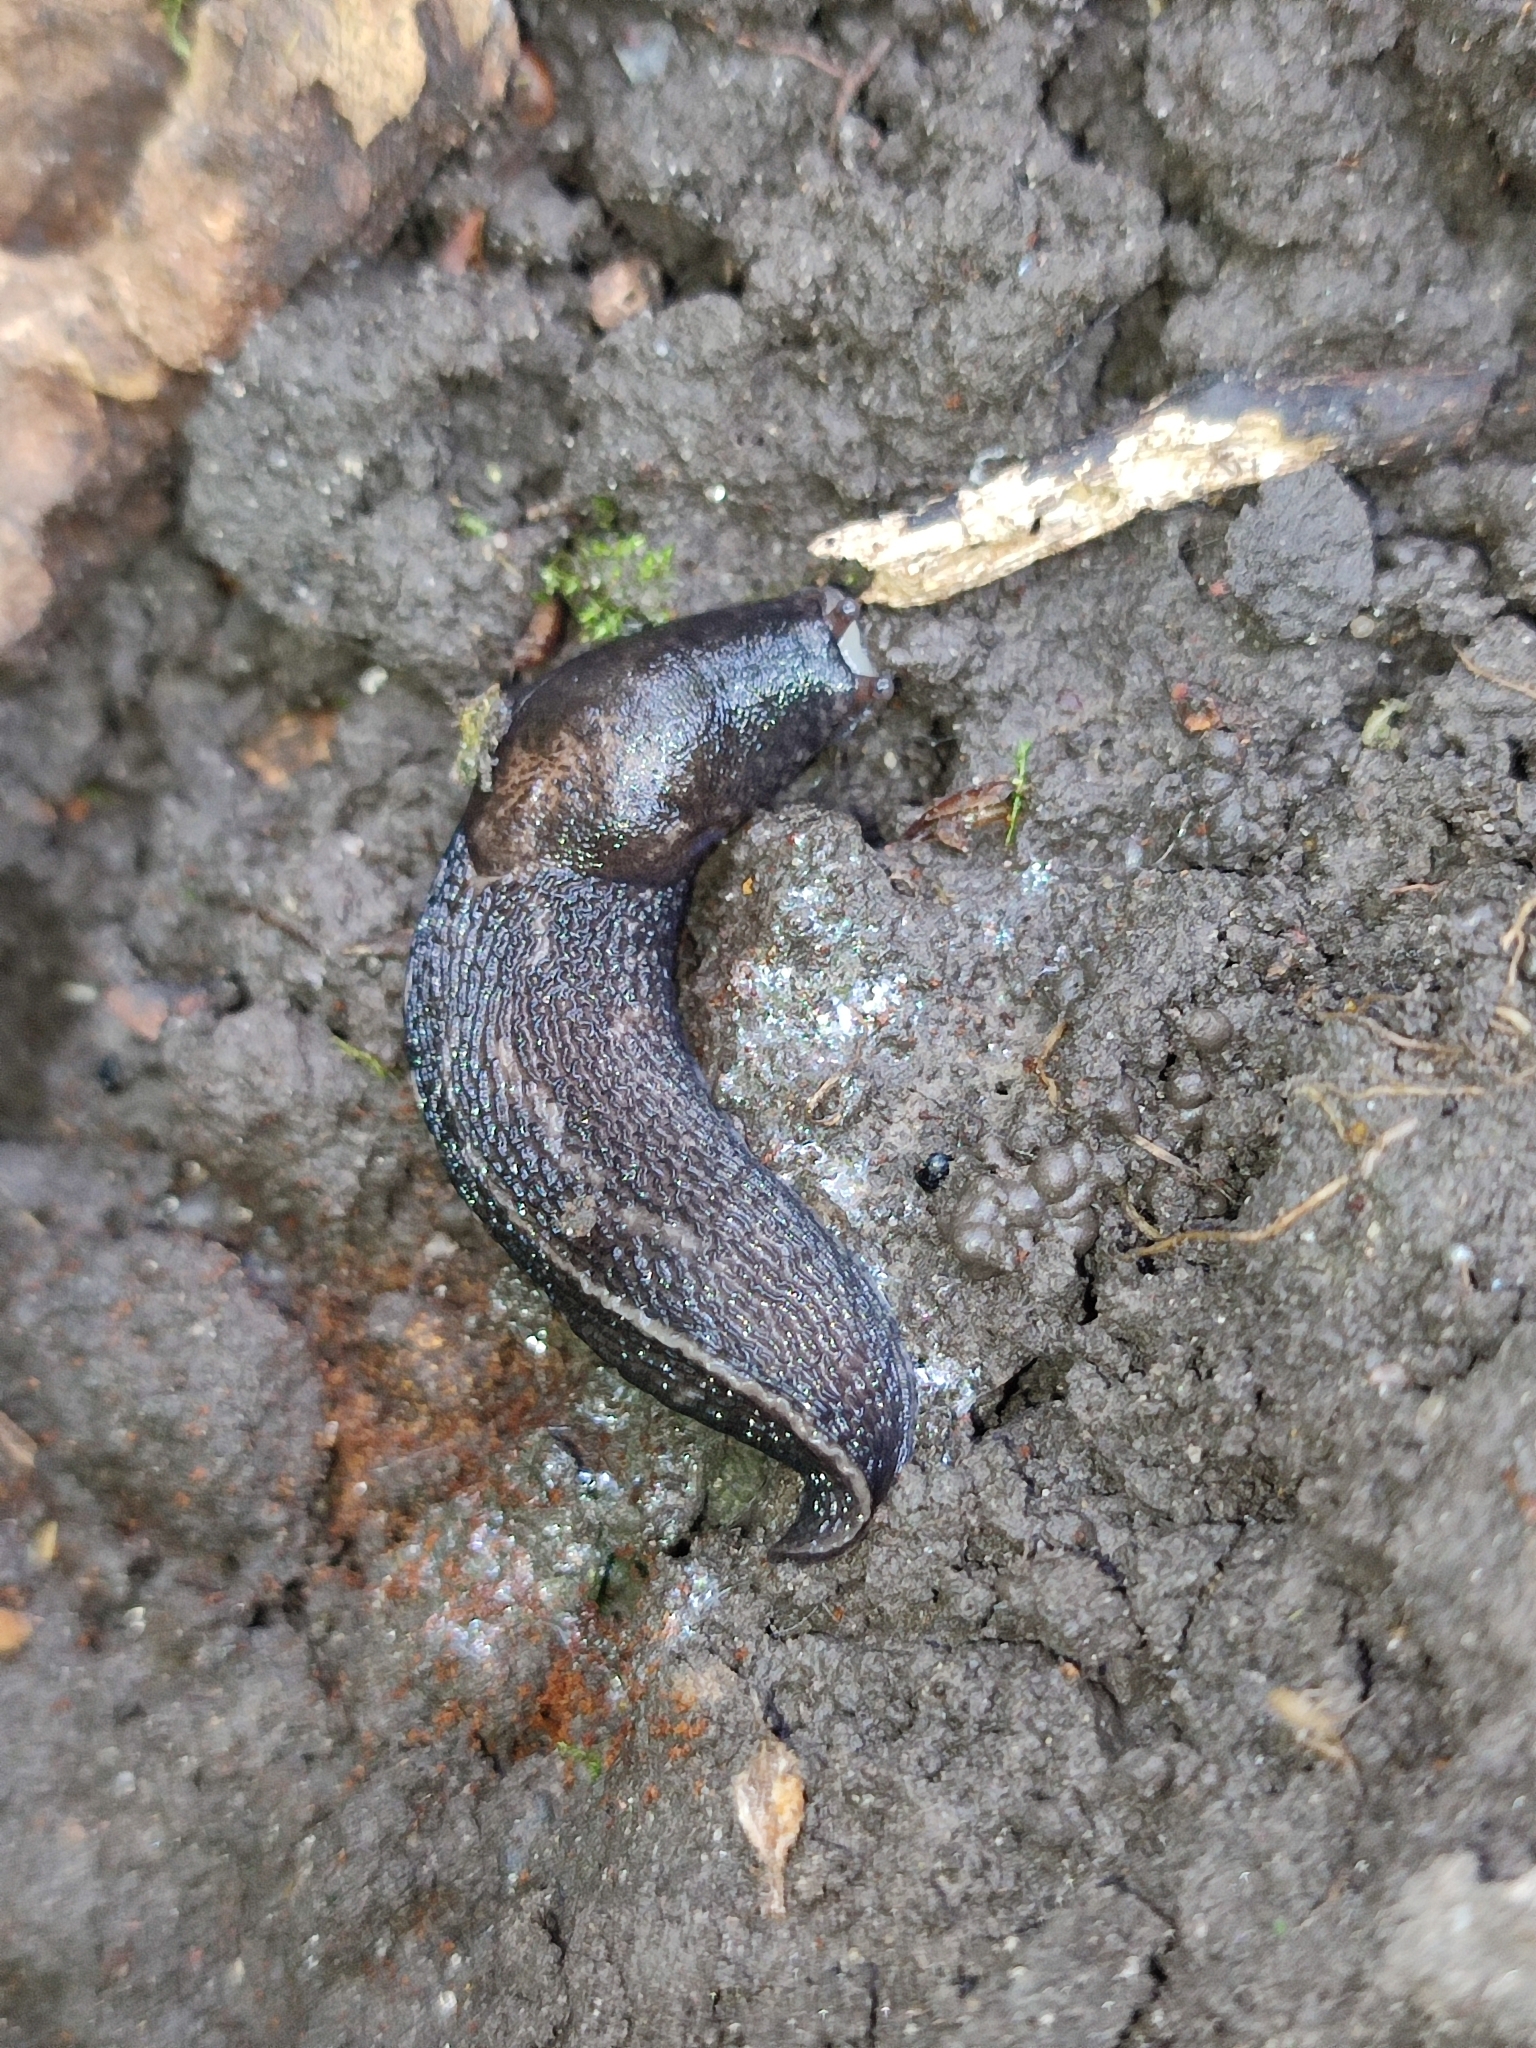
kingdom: Animalia
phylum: Mollusca
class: Gastropoda
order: Stylommatophora
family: Limacidae
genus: Limax
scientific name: Limax maximus
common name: Great grey slug
